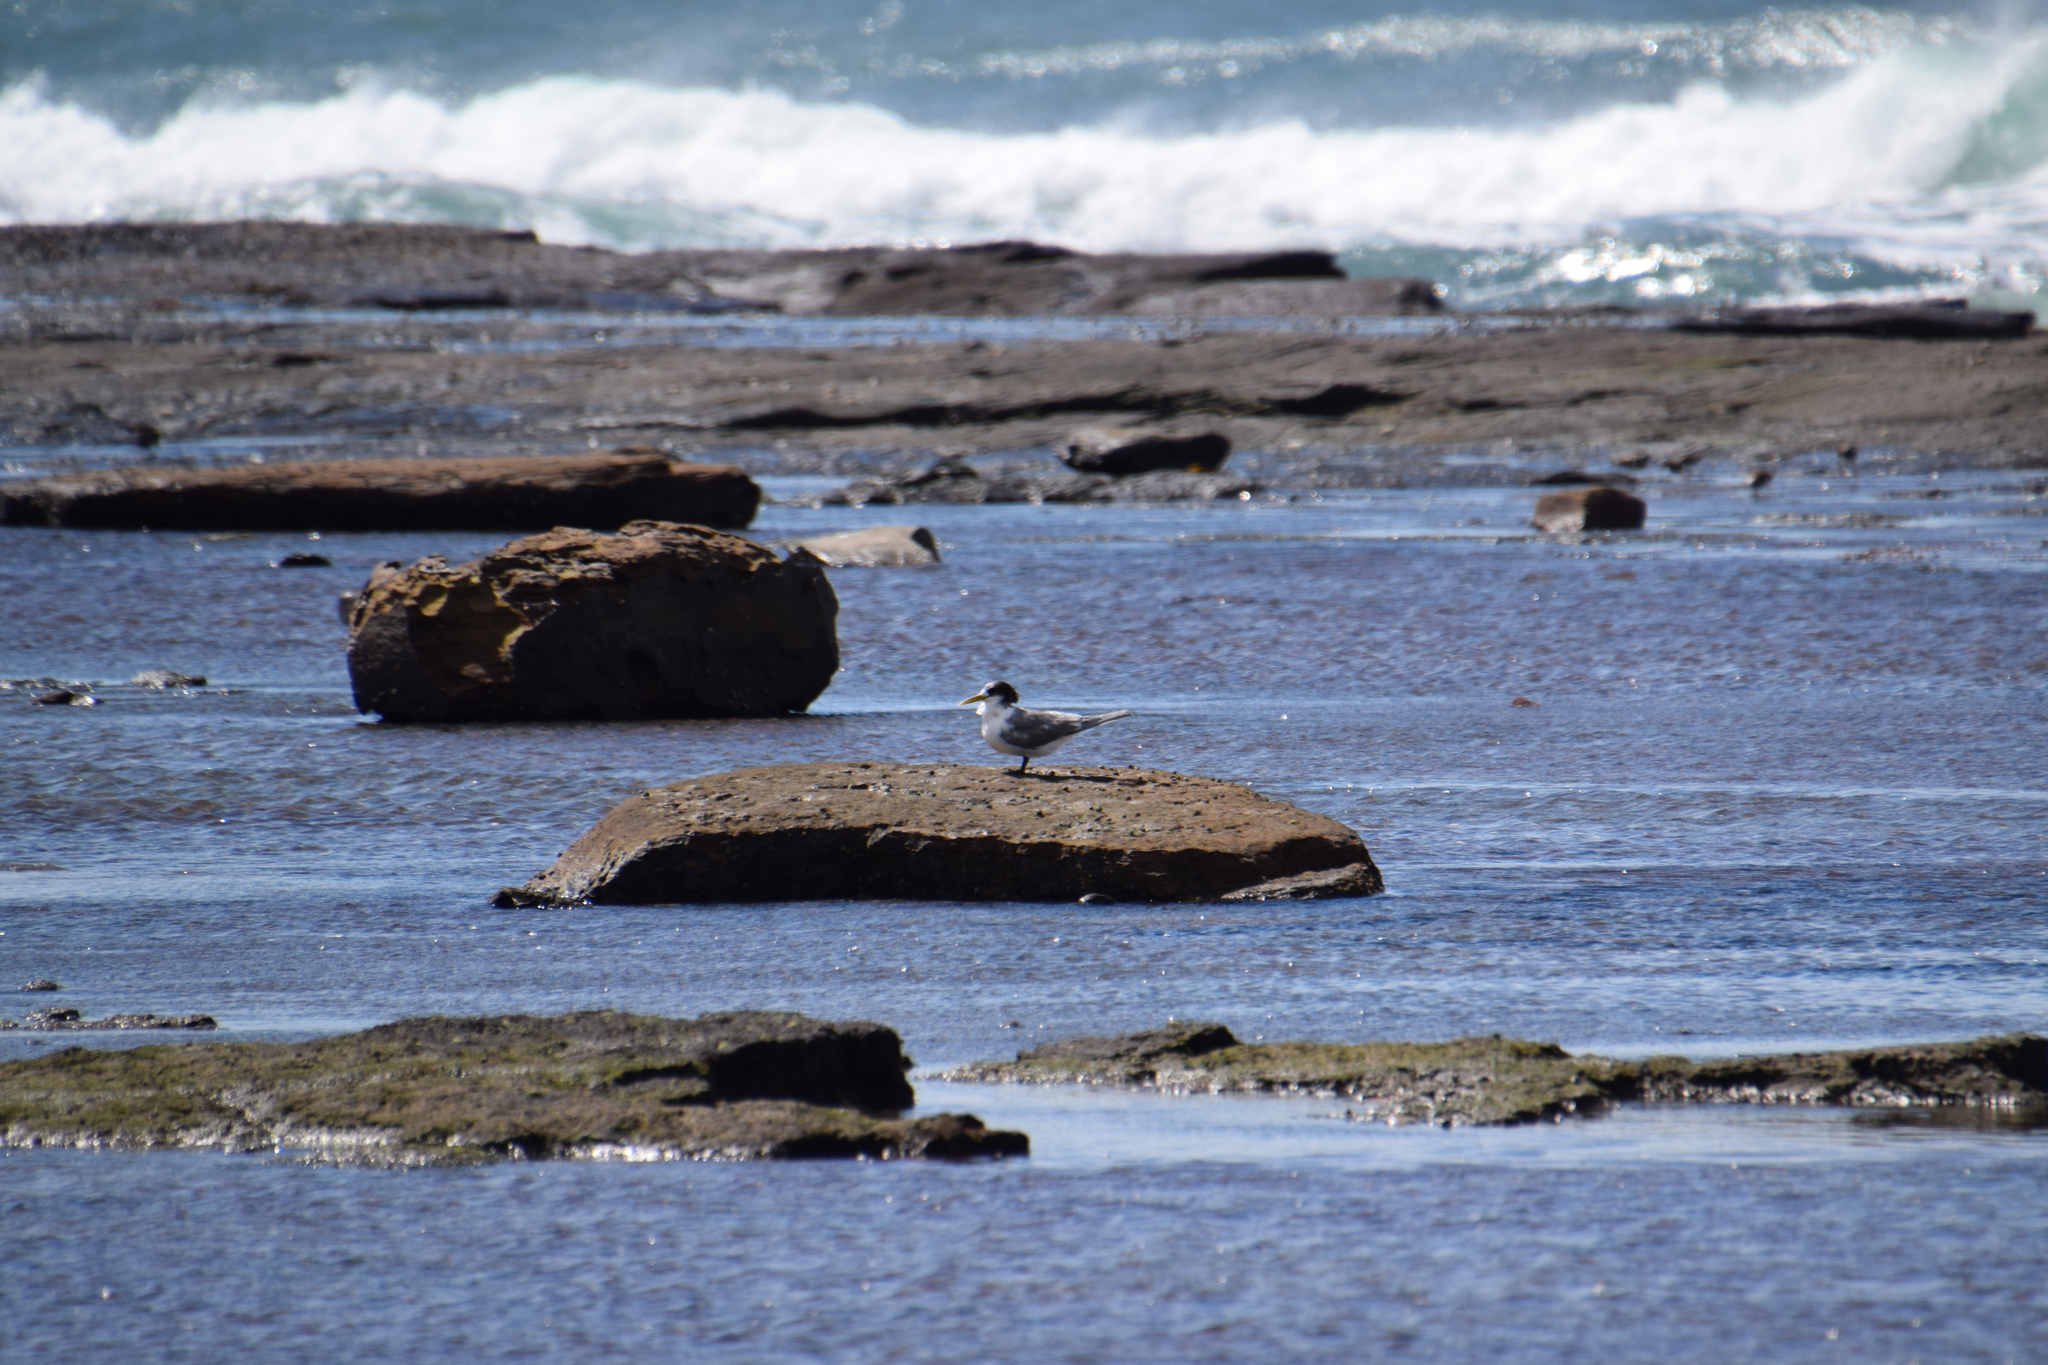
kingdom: Animalia
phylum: Chordata
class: Aves
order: Charadriiformes
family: Laridae
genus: Thalasseus
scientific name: Thalasseus bergii
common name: Greater crested tern
